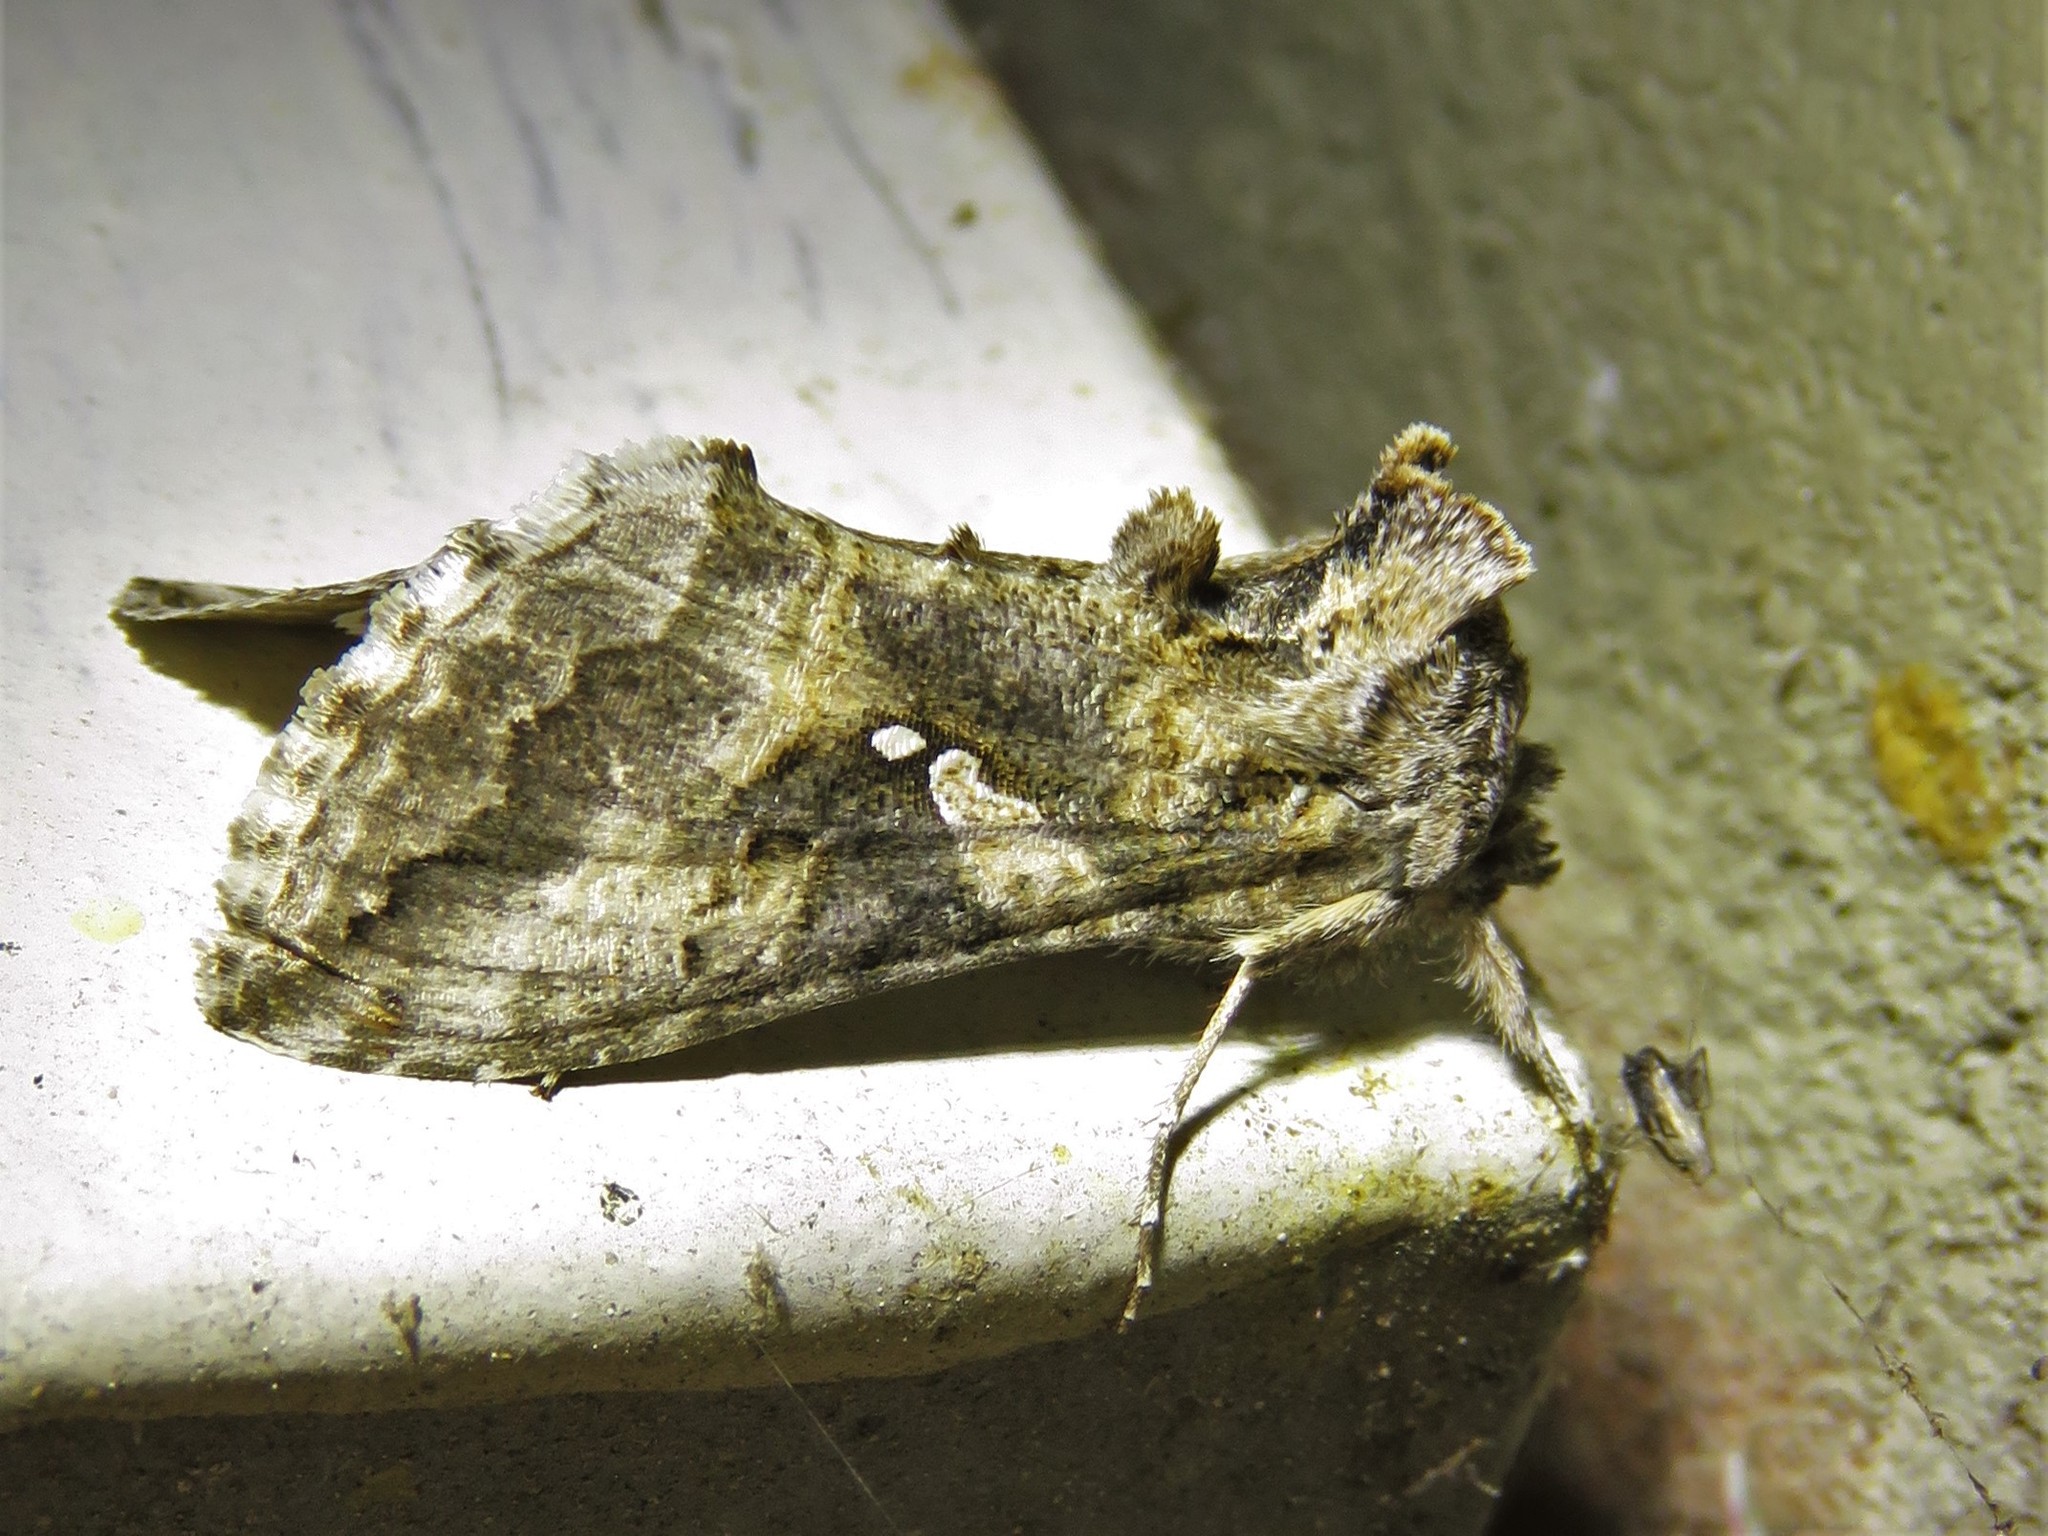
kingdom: Animalia
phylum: Arthropoda
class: Insecta
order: Lepidoptera
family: Noctuidae
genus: Rachiplusia
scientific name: Rachiplusia ou
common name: Gray looper moth
